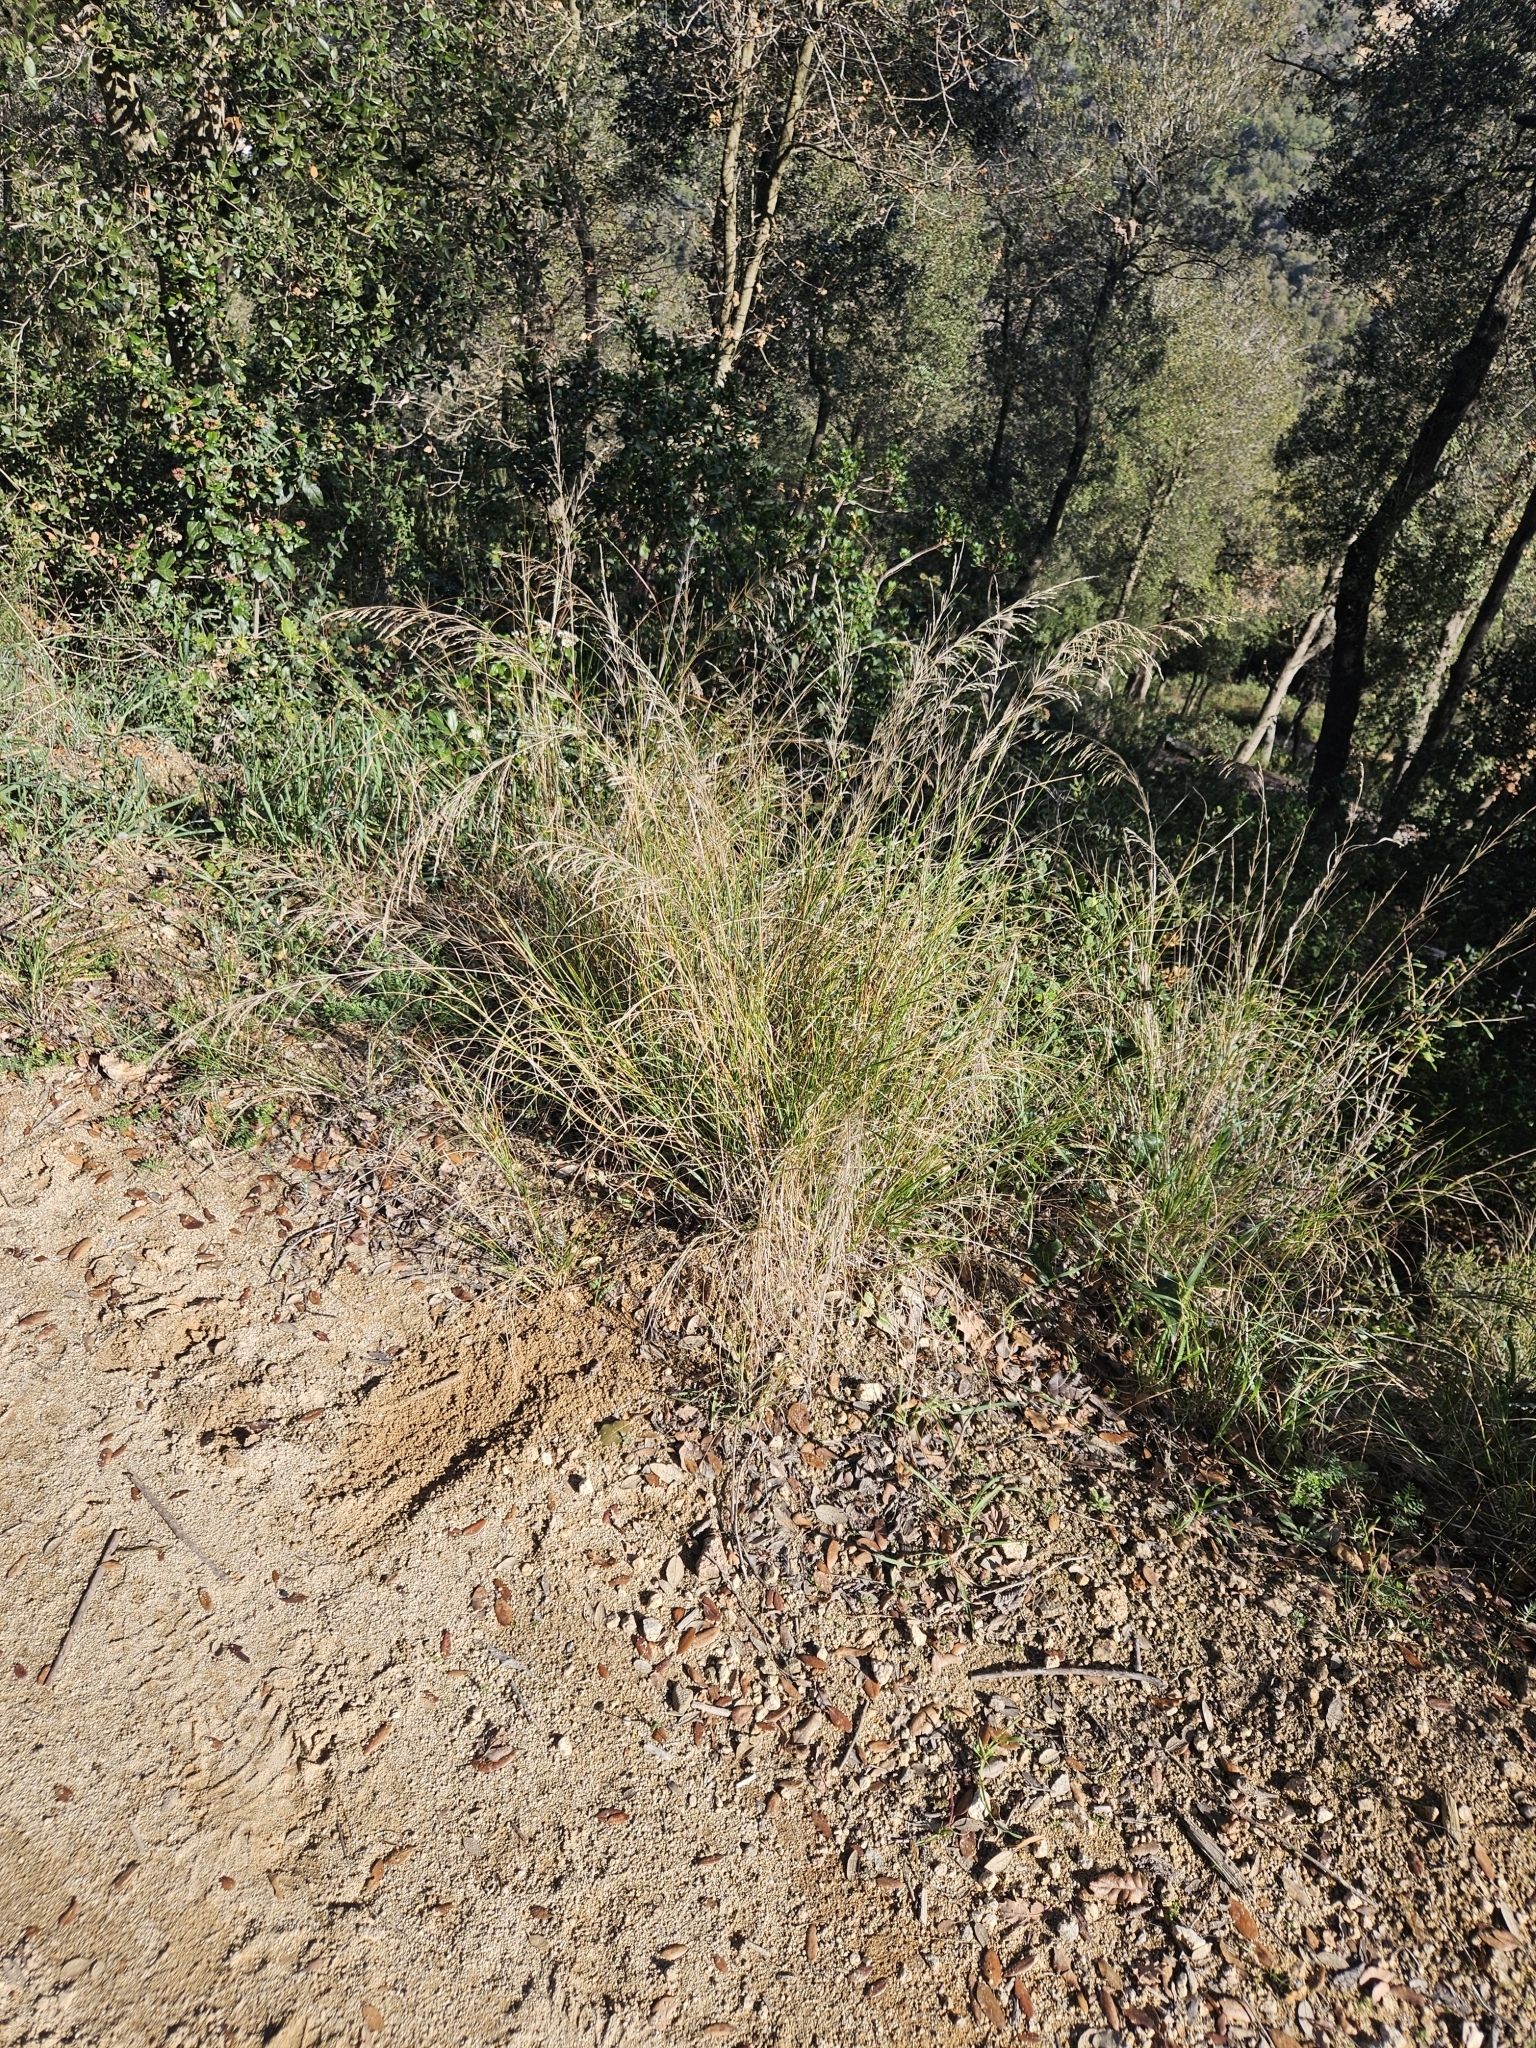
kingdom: Plantae
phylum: Tracheophyta
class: Liliopsida
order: Poales
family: Poaceae
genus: Oloptum
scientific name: Oloptum thomasii
